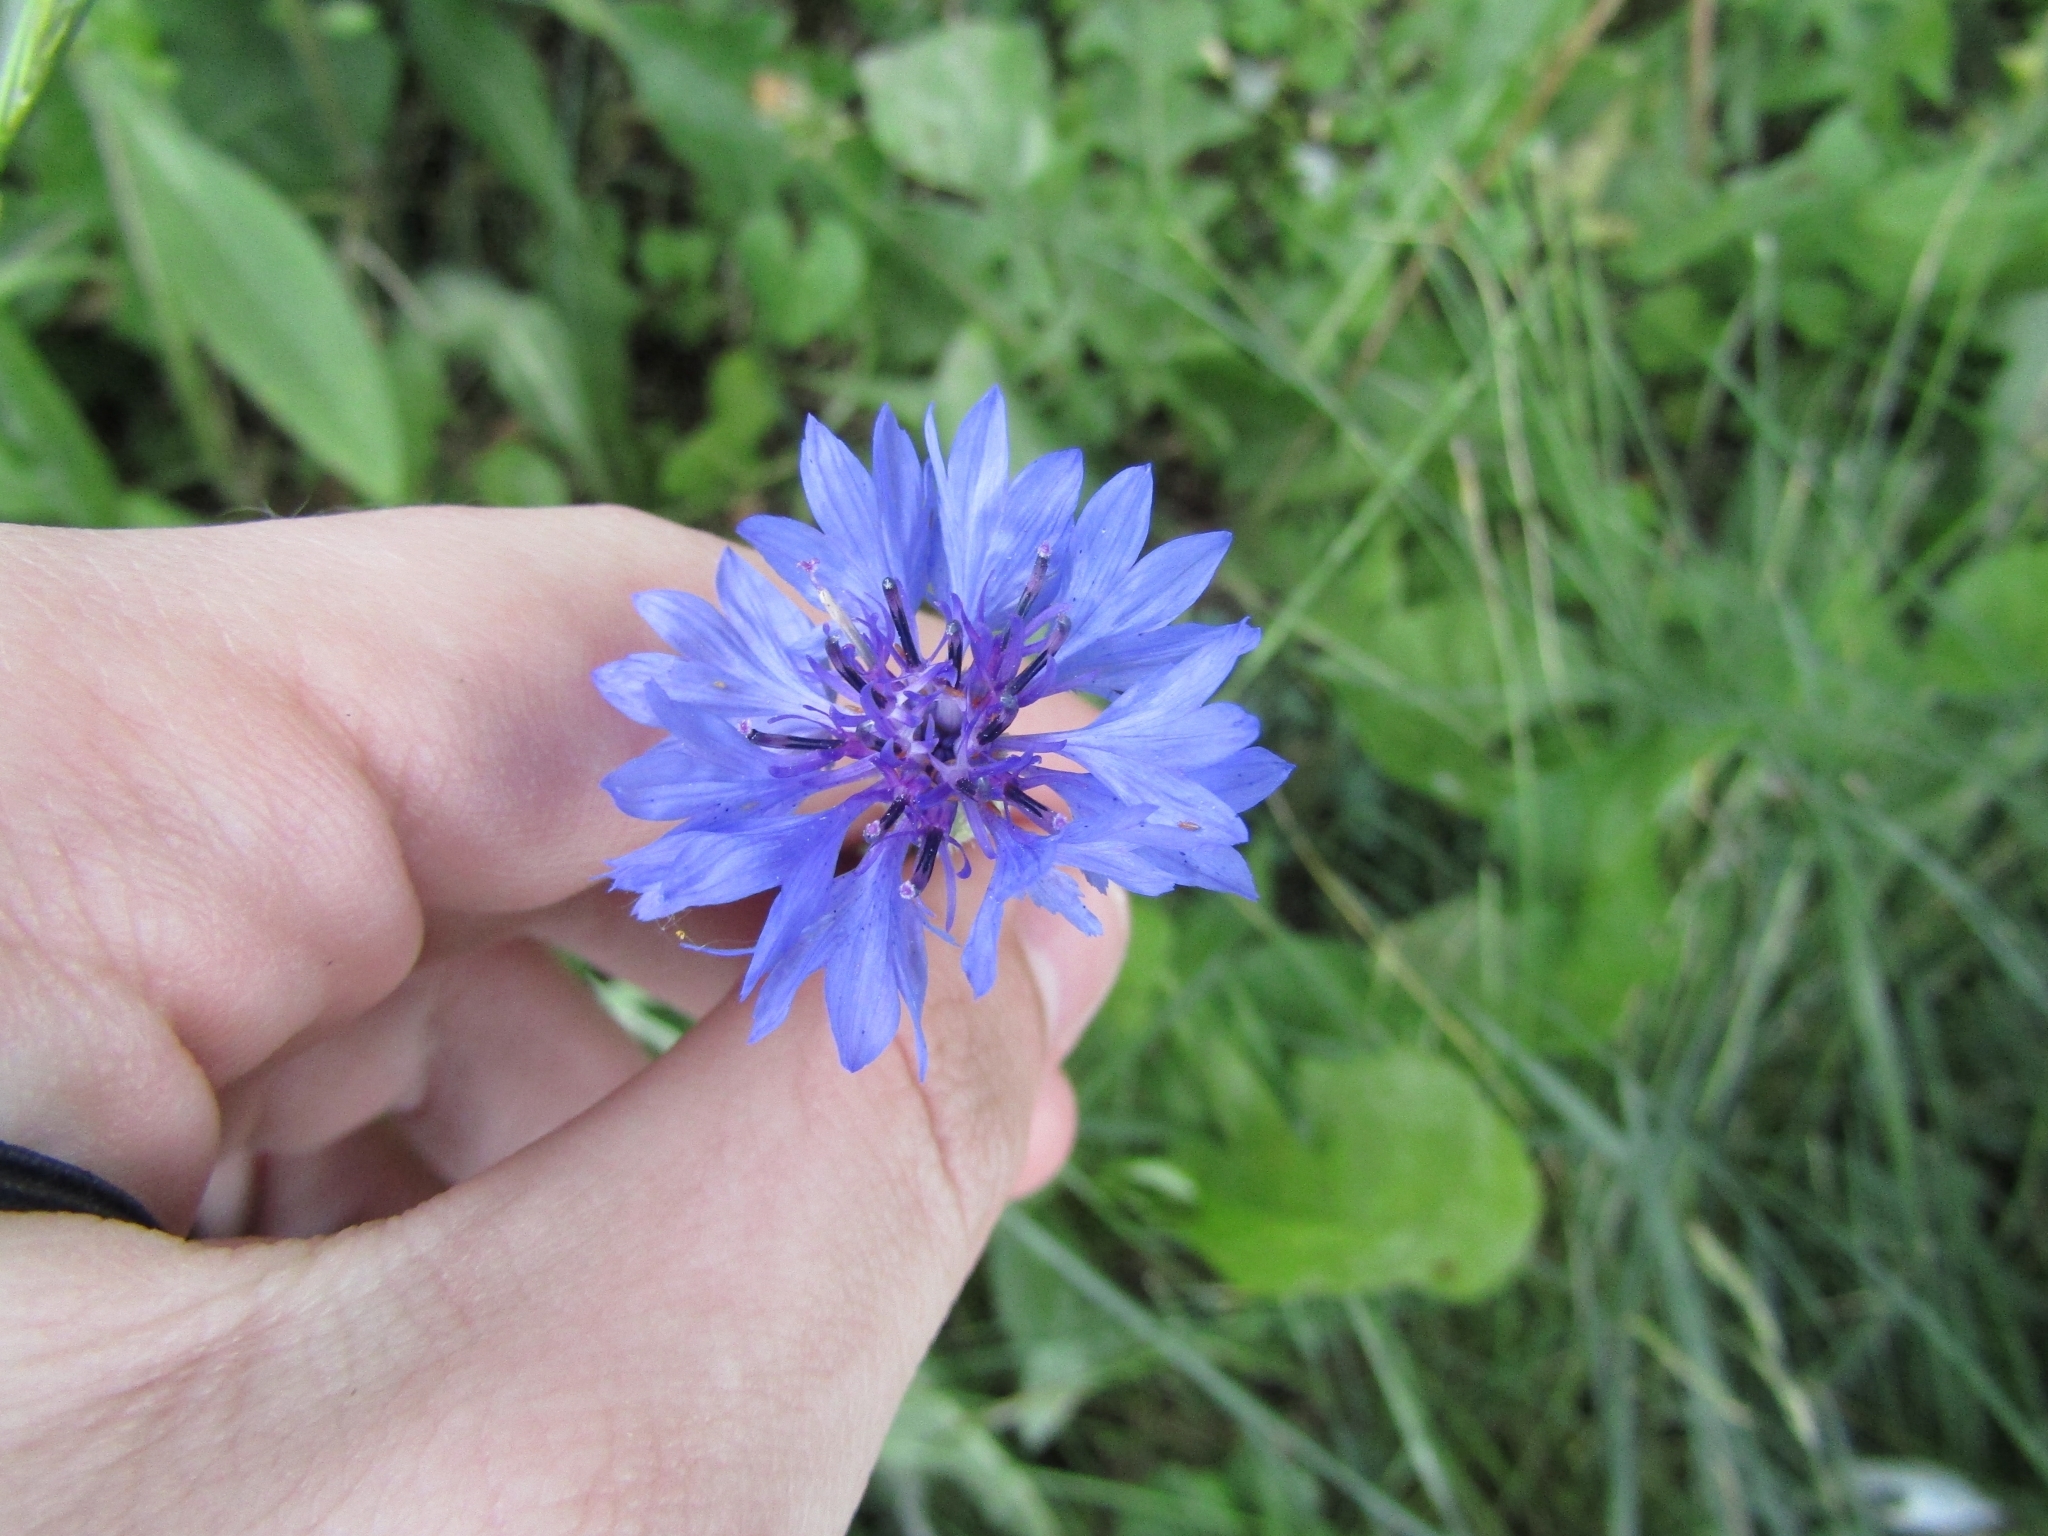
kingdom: Plantae
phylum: Tracheophyta
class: Magnoliopsida
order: Asterales
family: Asteraceae
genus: Centaurea
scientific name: Centaurea cyanus
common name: Cornflower
